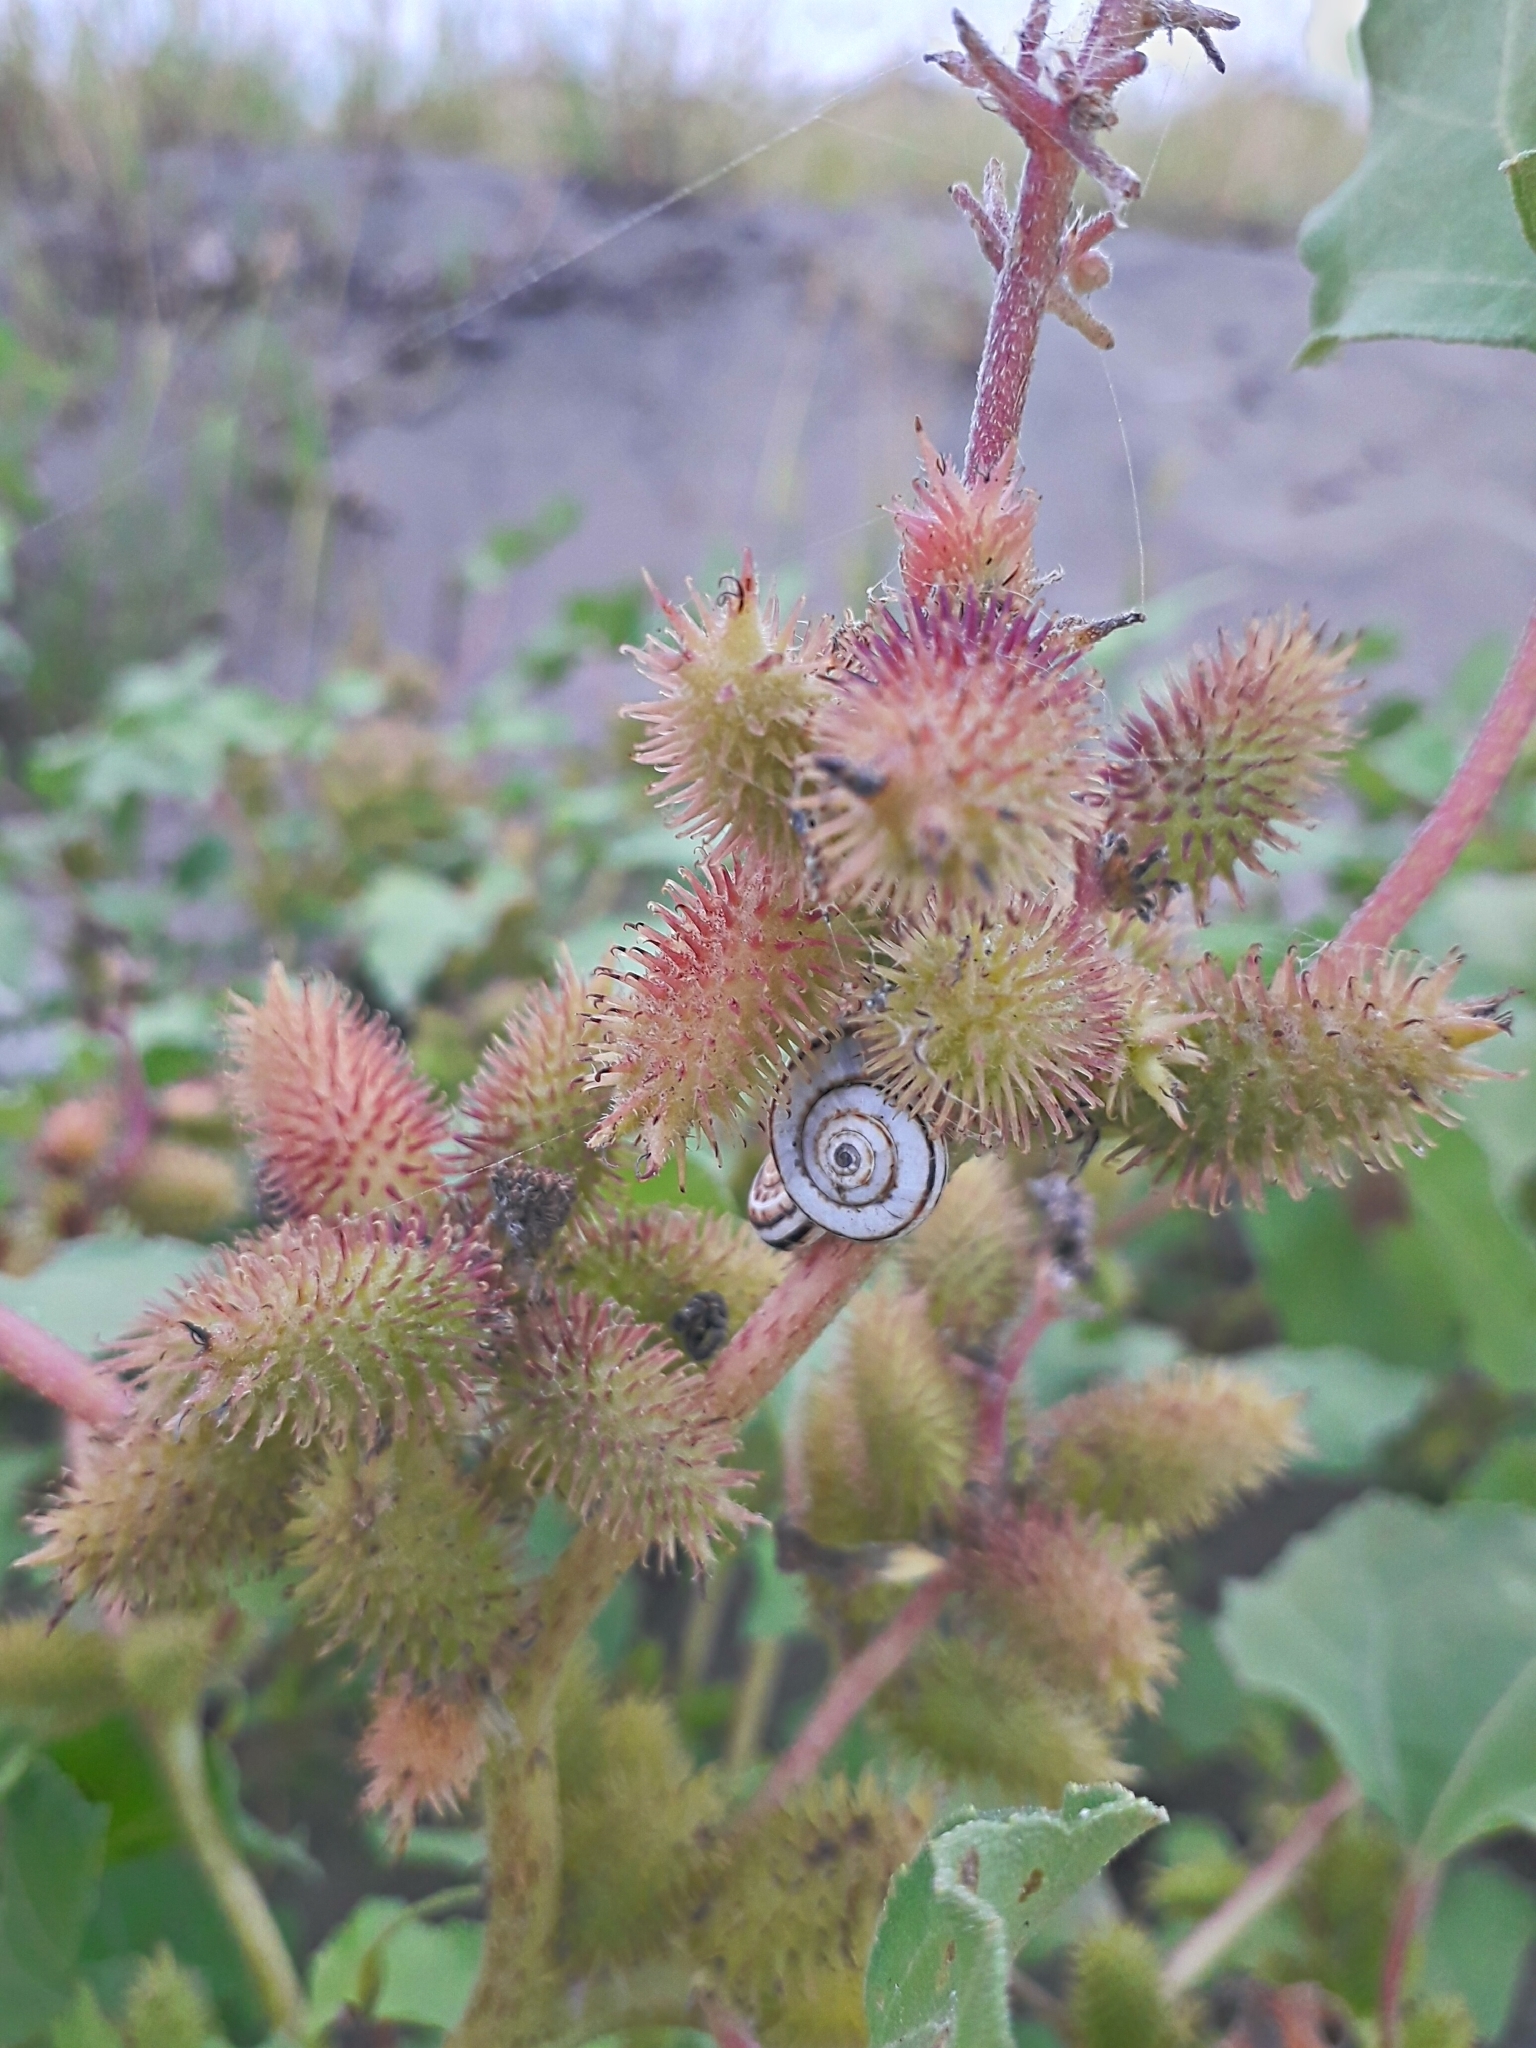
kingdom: Plantae
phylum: Tracheophyta
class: Magnoliopsida
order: Asterales
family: Asteraceae
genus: Xanthium
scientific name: Xanthium strumarium
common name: Rough cocklebur
